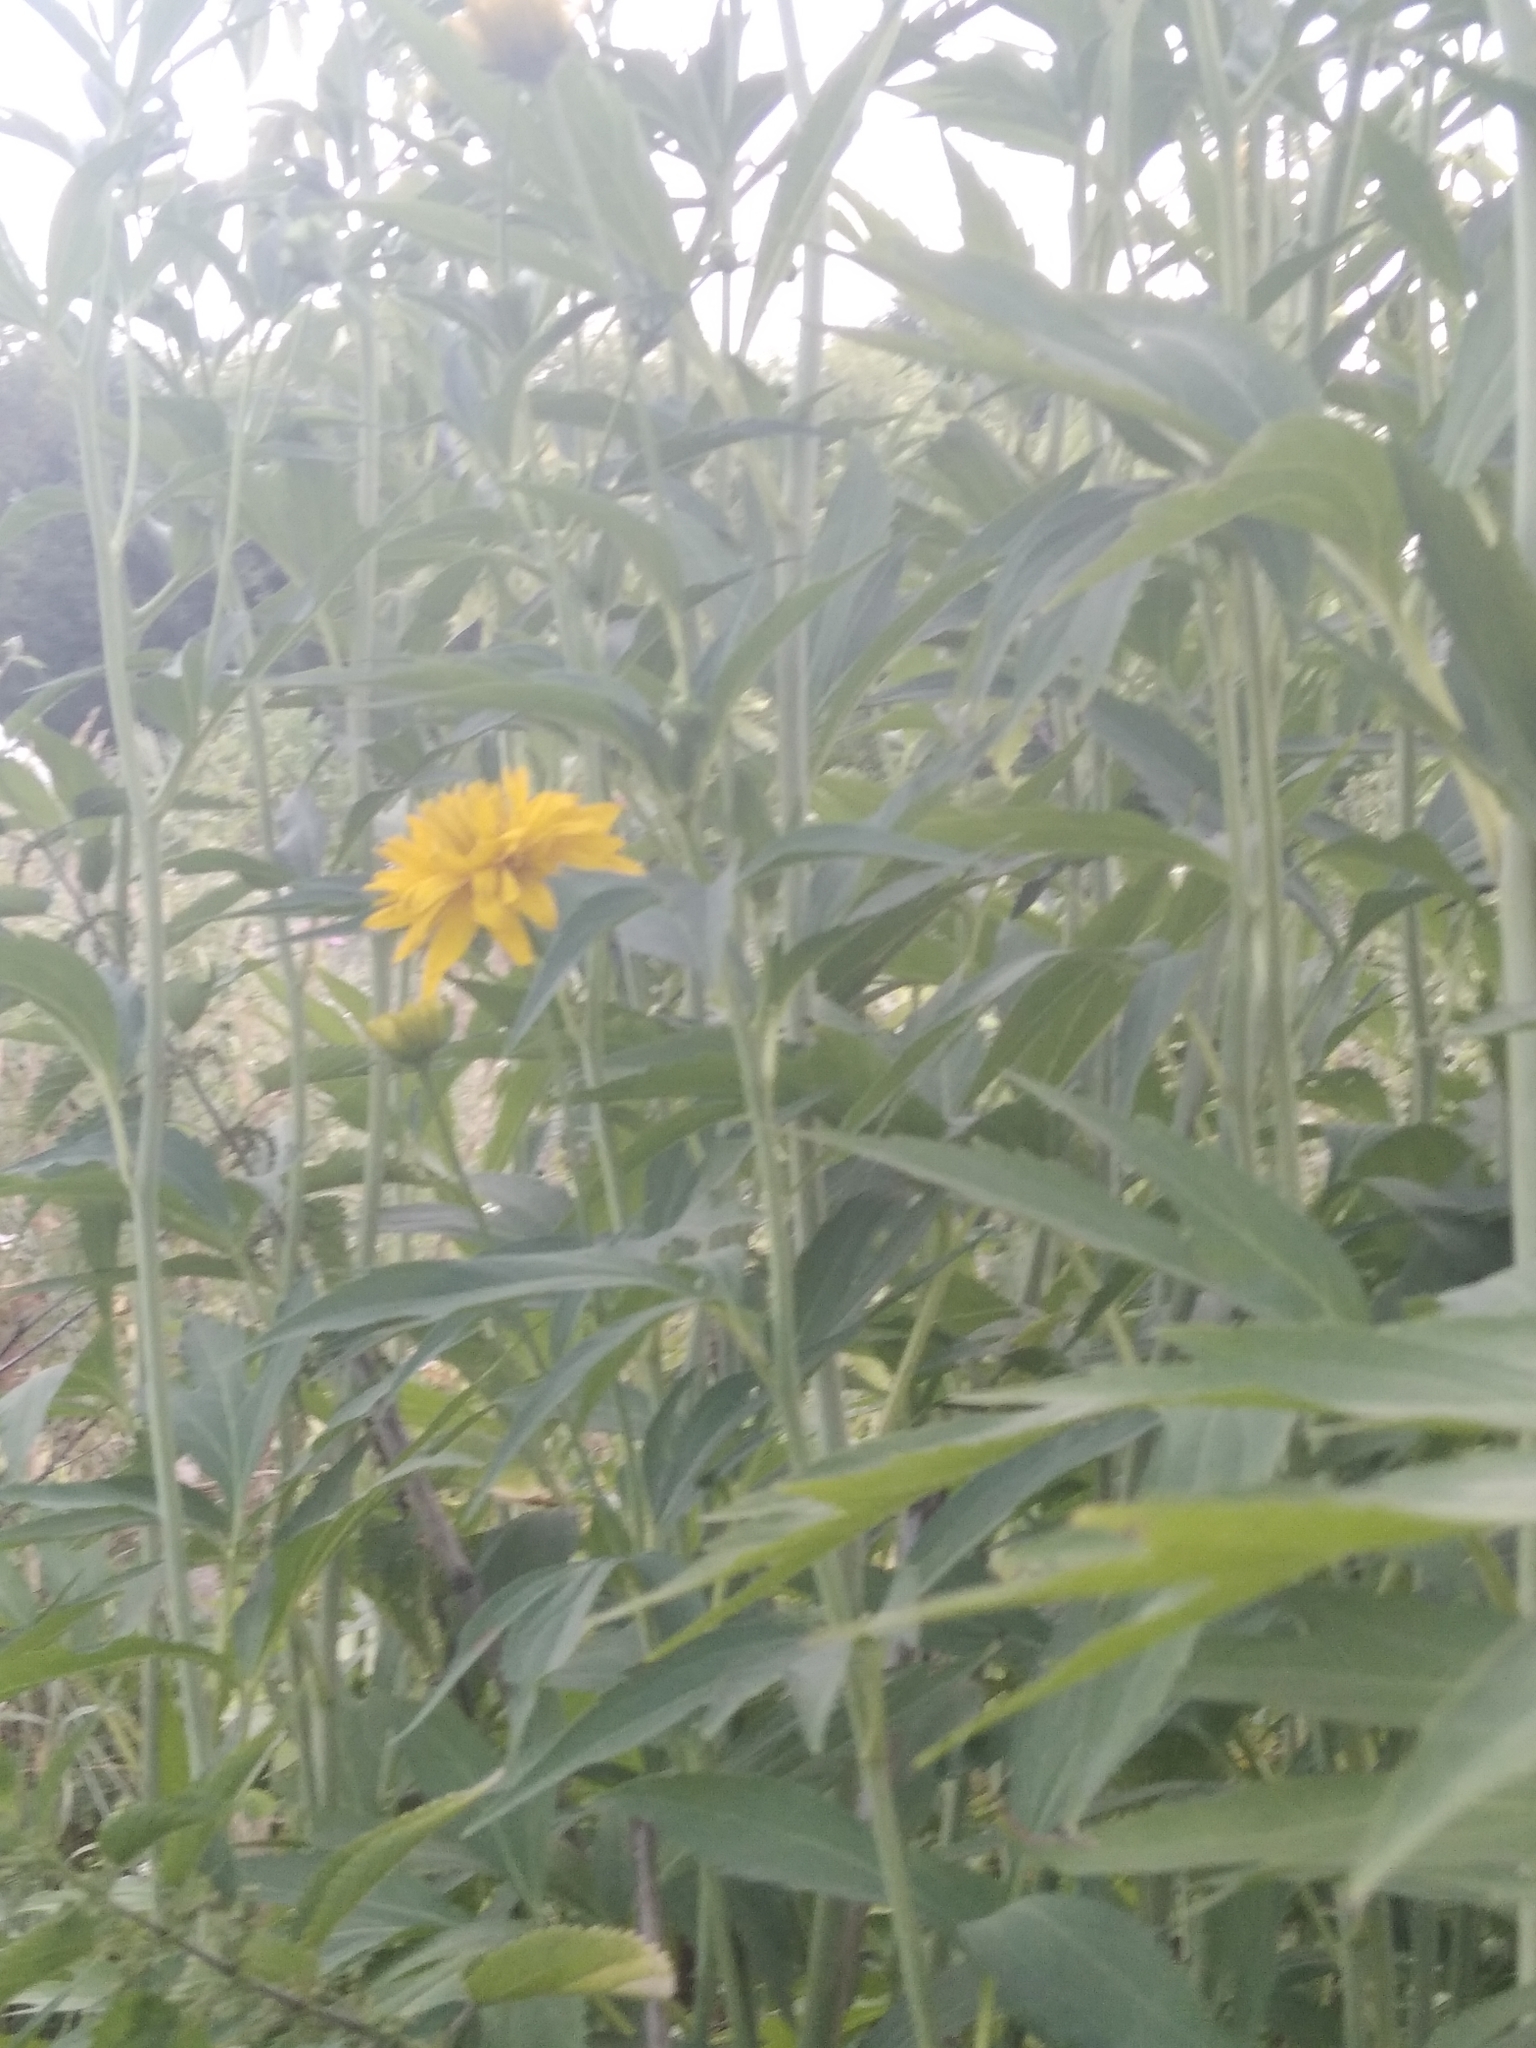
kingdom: Plantae
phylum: Tracheophyta
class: Magnoliopsida
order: Asterales
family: Asteraceae
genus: Rudbeckia
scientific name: Rudbeckia laciniata
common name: Coneflower
